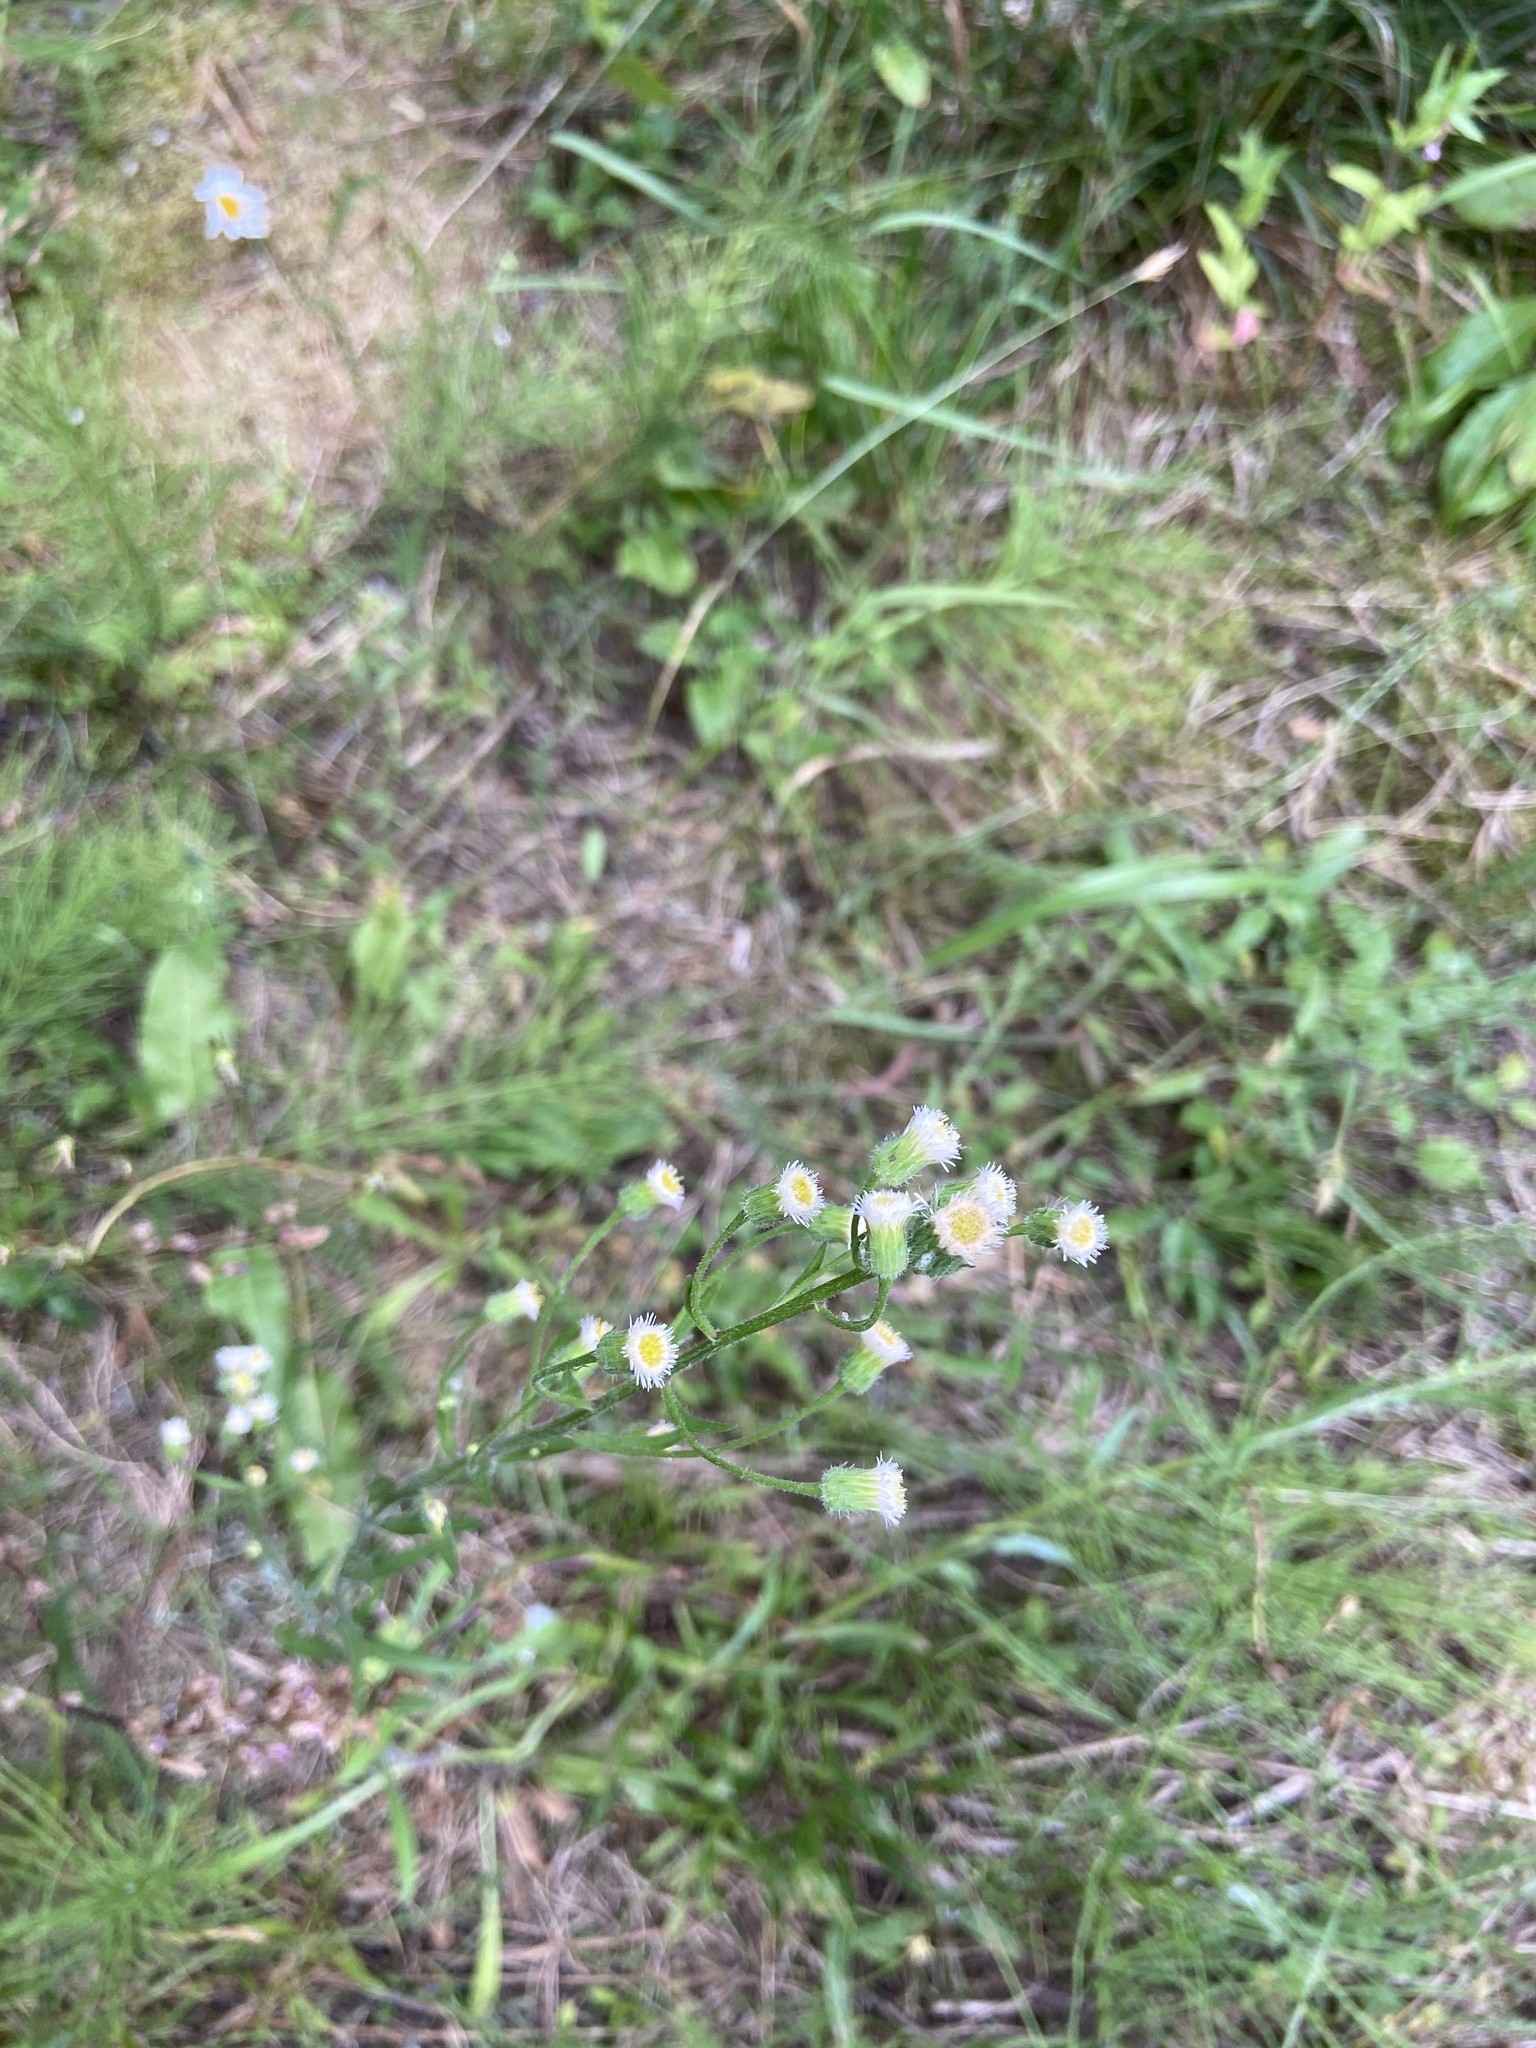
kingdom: Plantae
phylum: Tracheophyta
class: Magnoliopsida
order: Asterales
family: Asteraceae
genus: Erigeron
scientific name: Erigeron acris
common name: Blue fleabane
